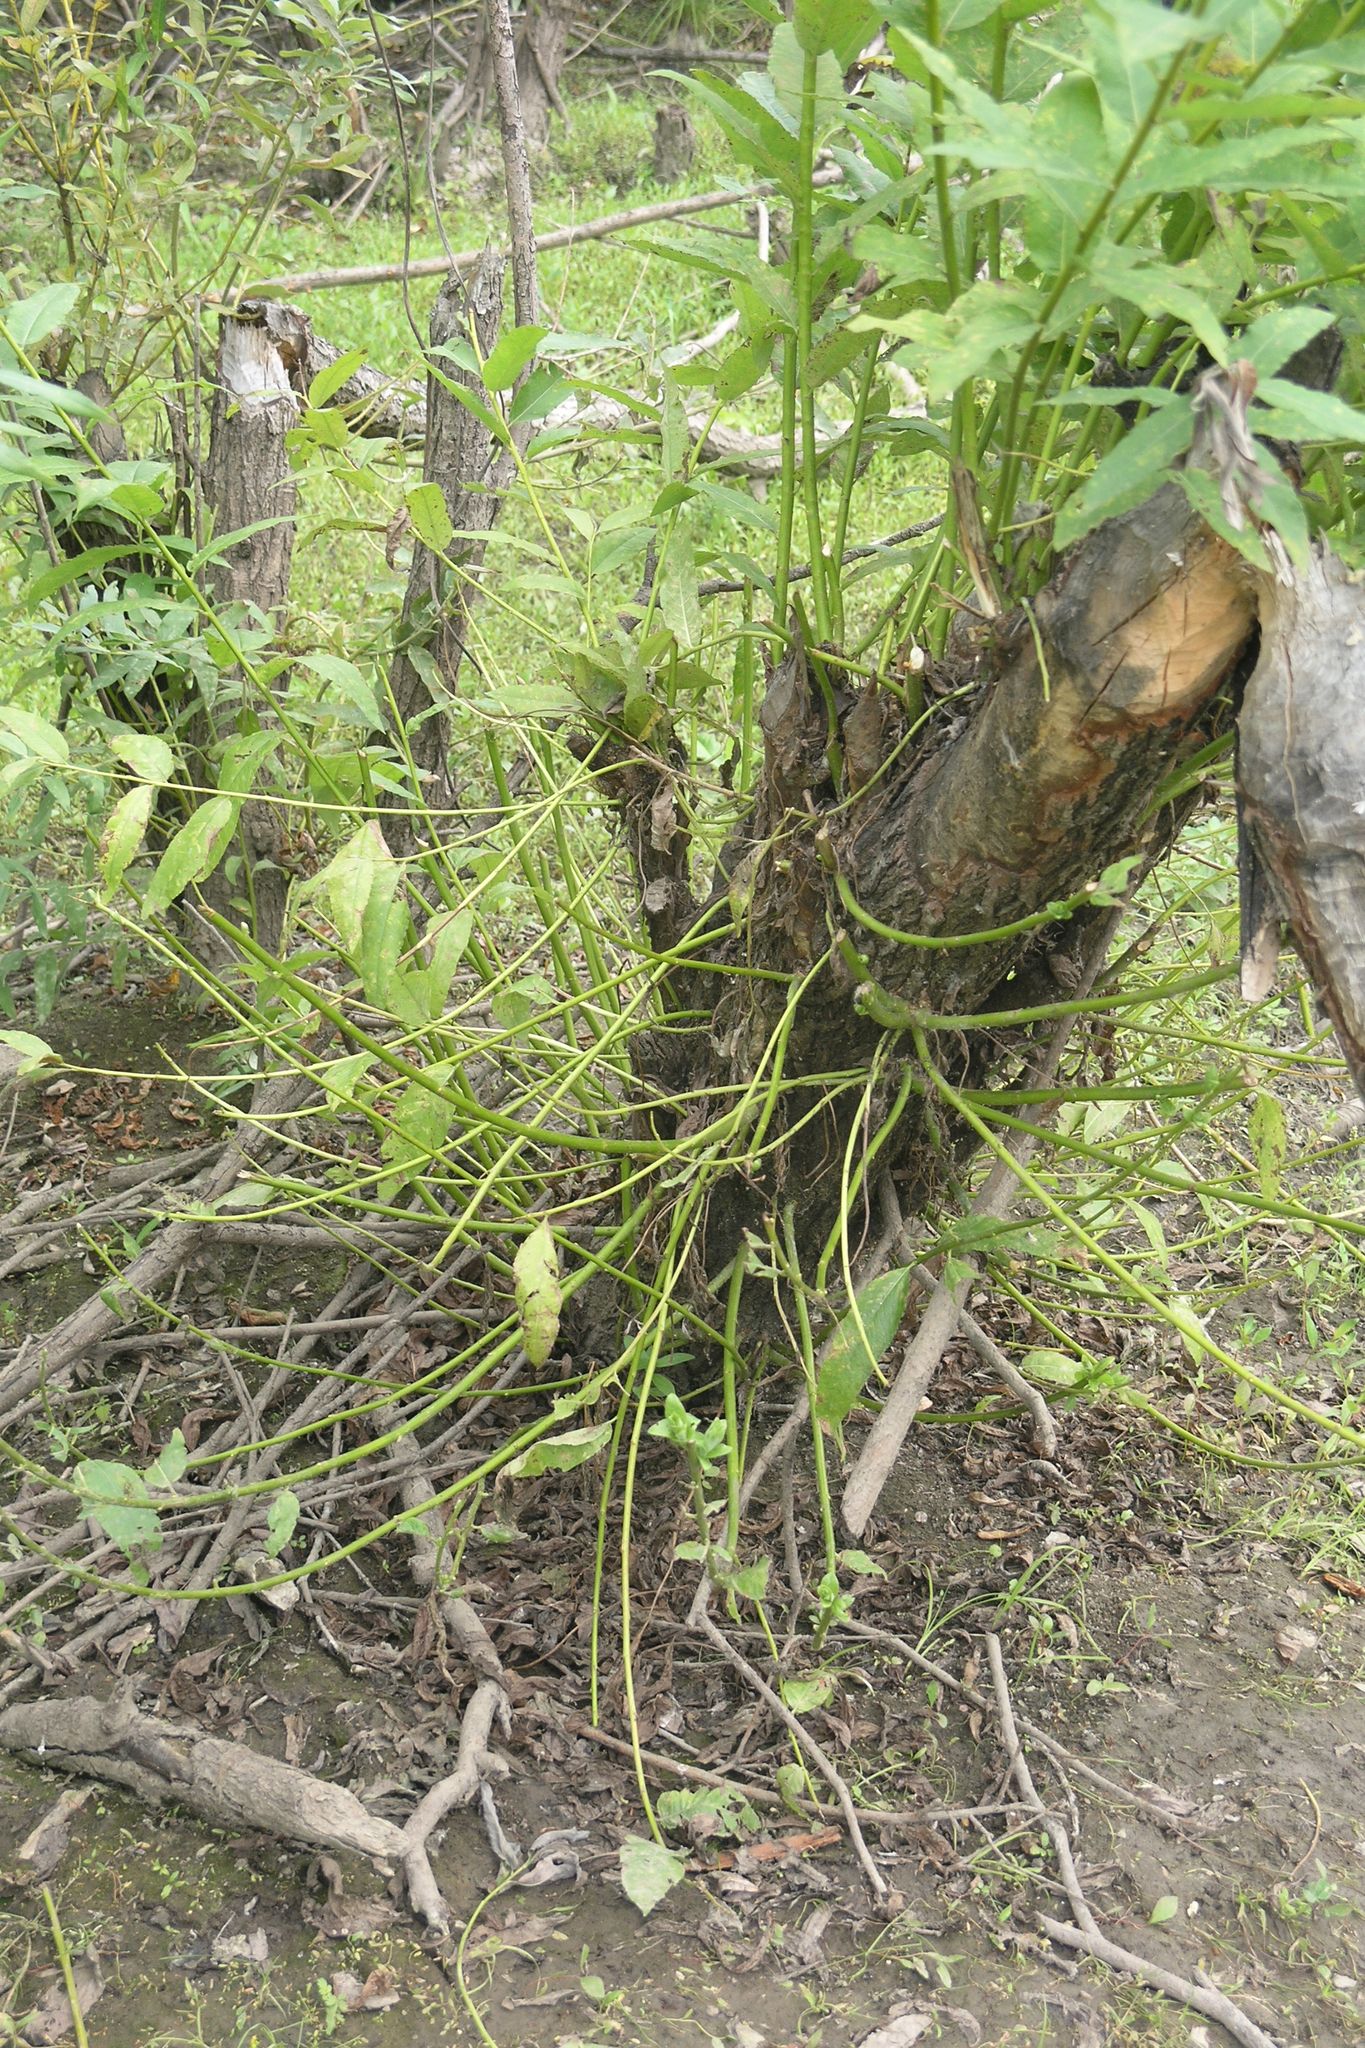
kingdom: Animalia
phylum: Chordata
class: Mammalia
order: Rodentia
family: Castoridae
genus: Castor
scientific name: Castor fiber
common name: Eurasian beaver
